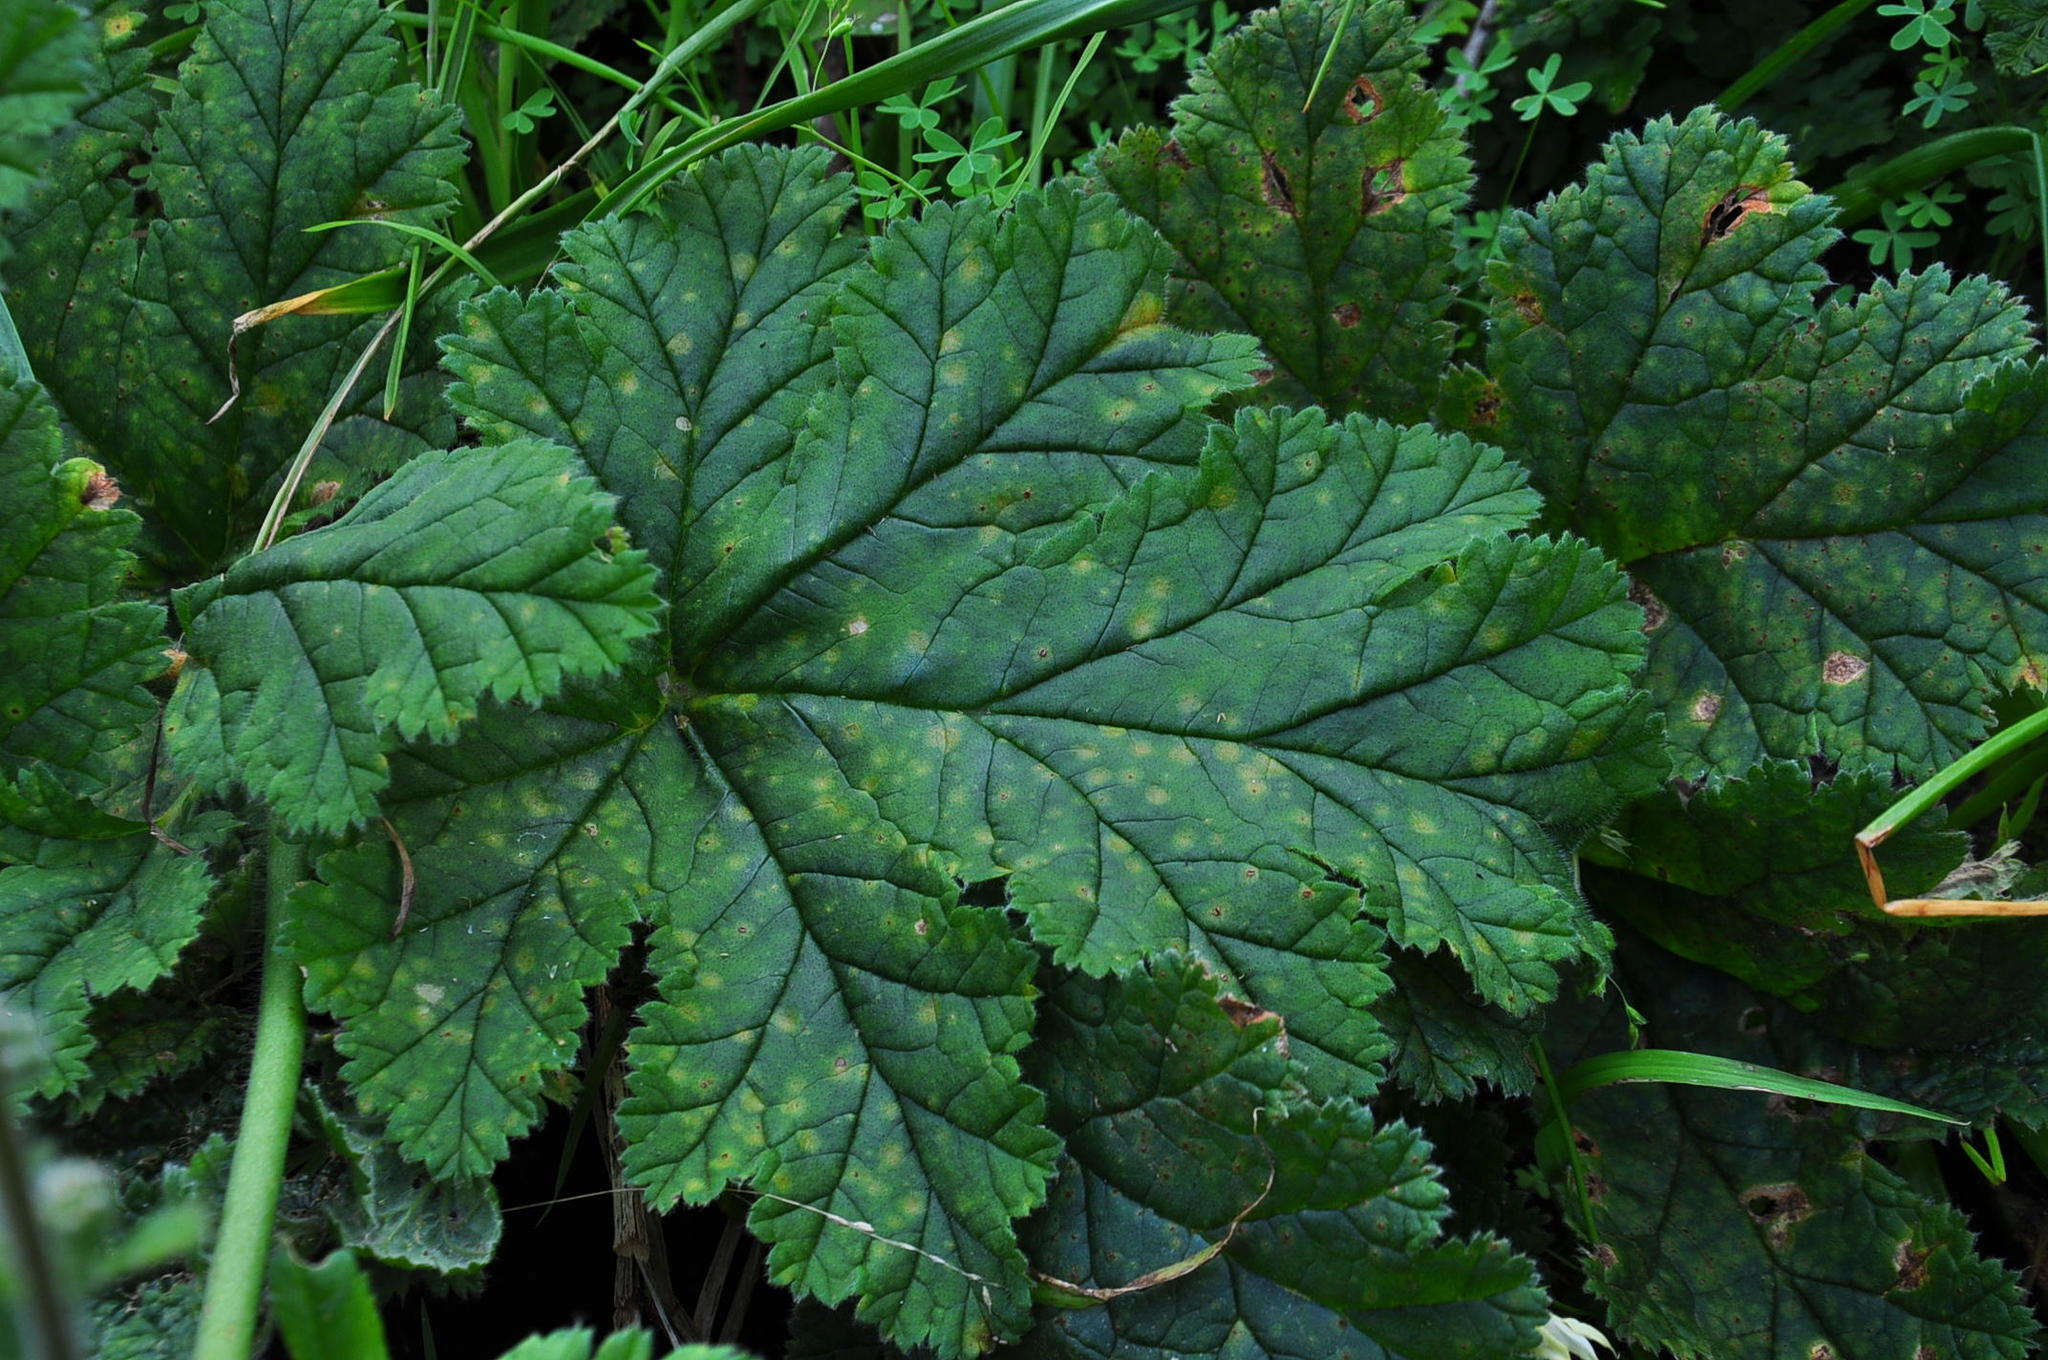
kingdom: Plantae
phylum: Tracheophyta
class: Magnoliopsida
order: Geraniales
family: Geraniaceae
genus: Pelargonium
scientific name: Pelargonium lobatum
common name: Vine-leaf pelargonium
